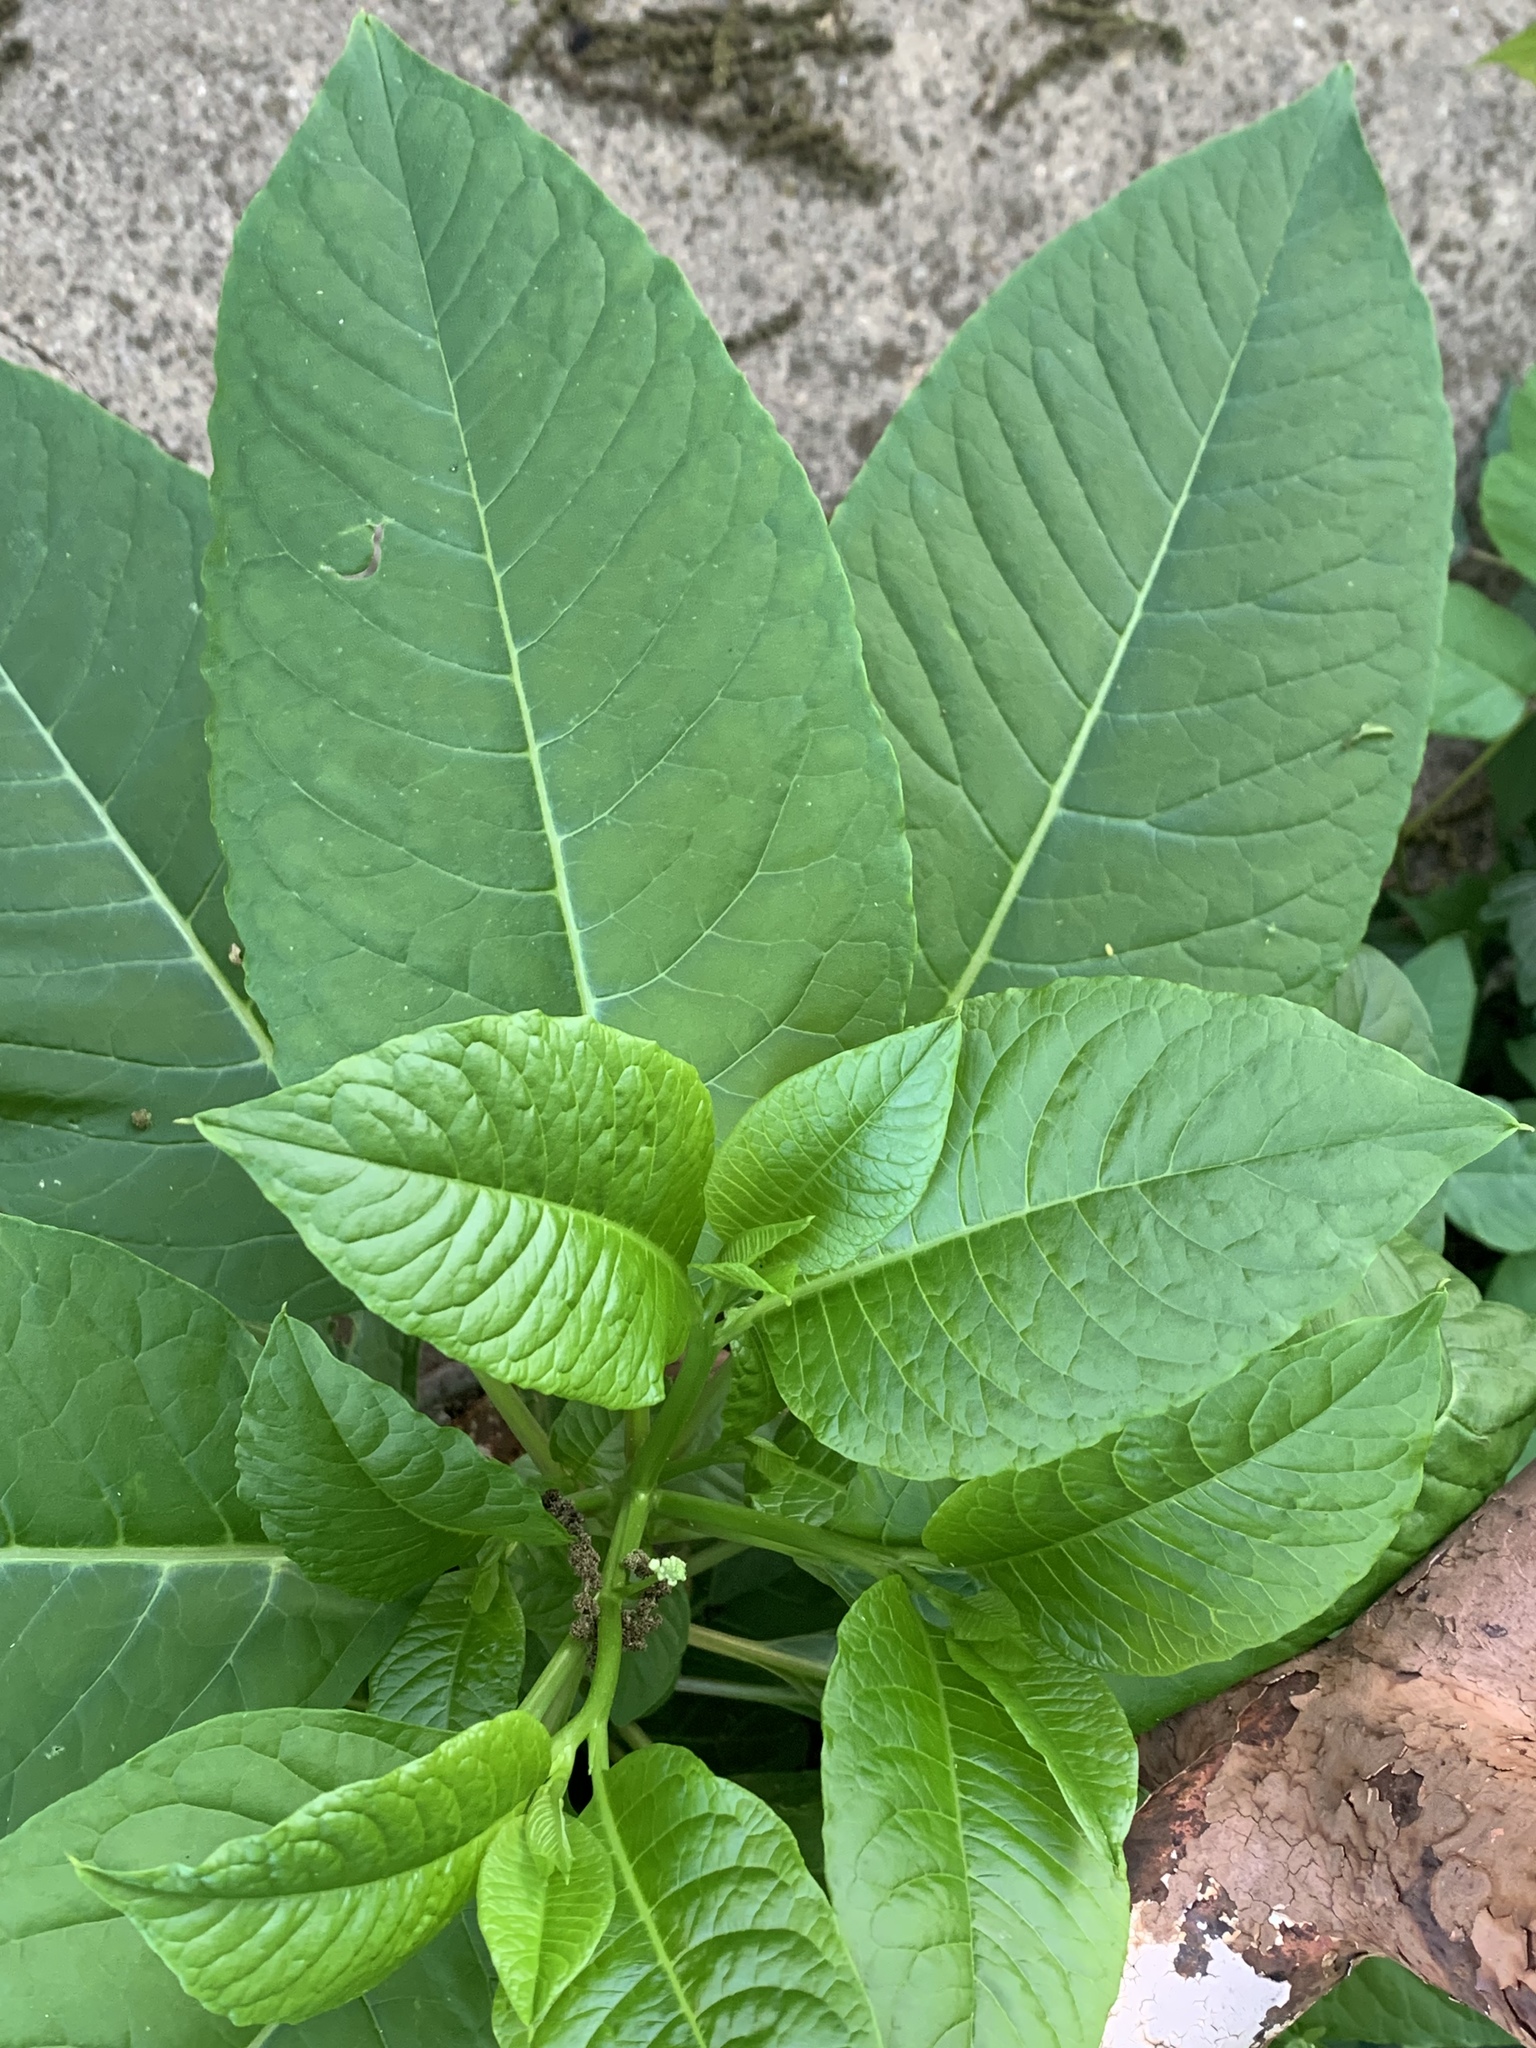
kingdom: Plantae
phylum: Tracheophyta
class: Magnoliopsida
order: Caryophyllales
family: Phytolaccaceae
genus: Phytolacca
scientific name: Phytolacca americana
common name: American pokeweed
